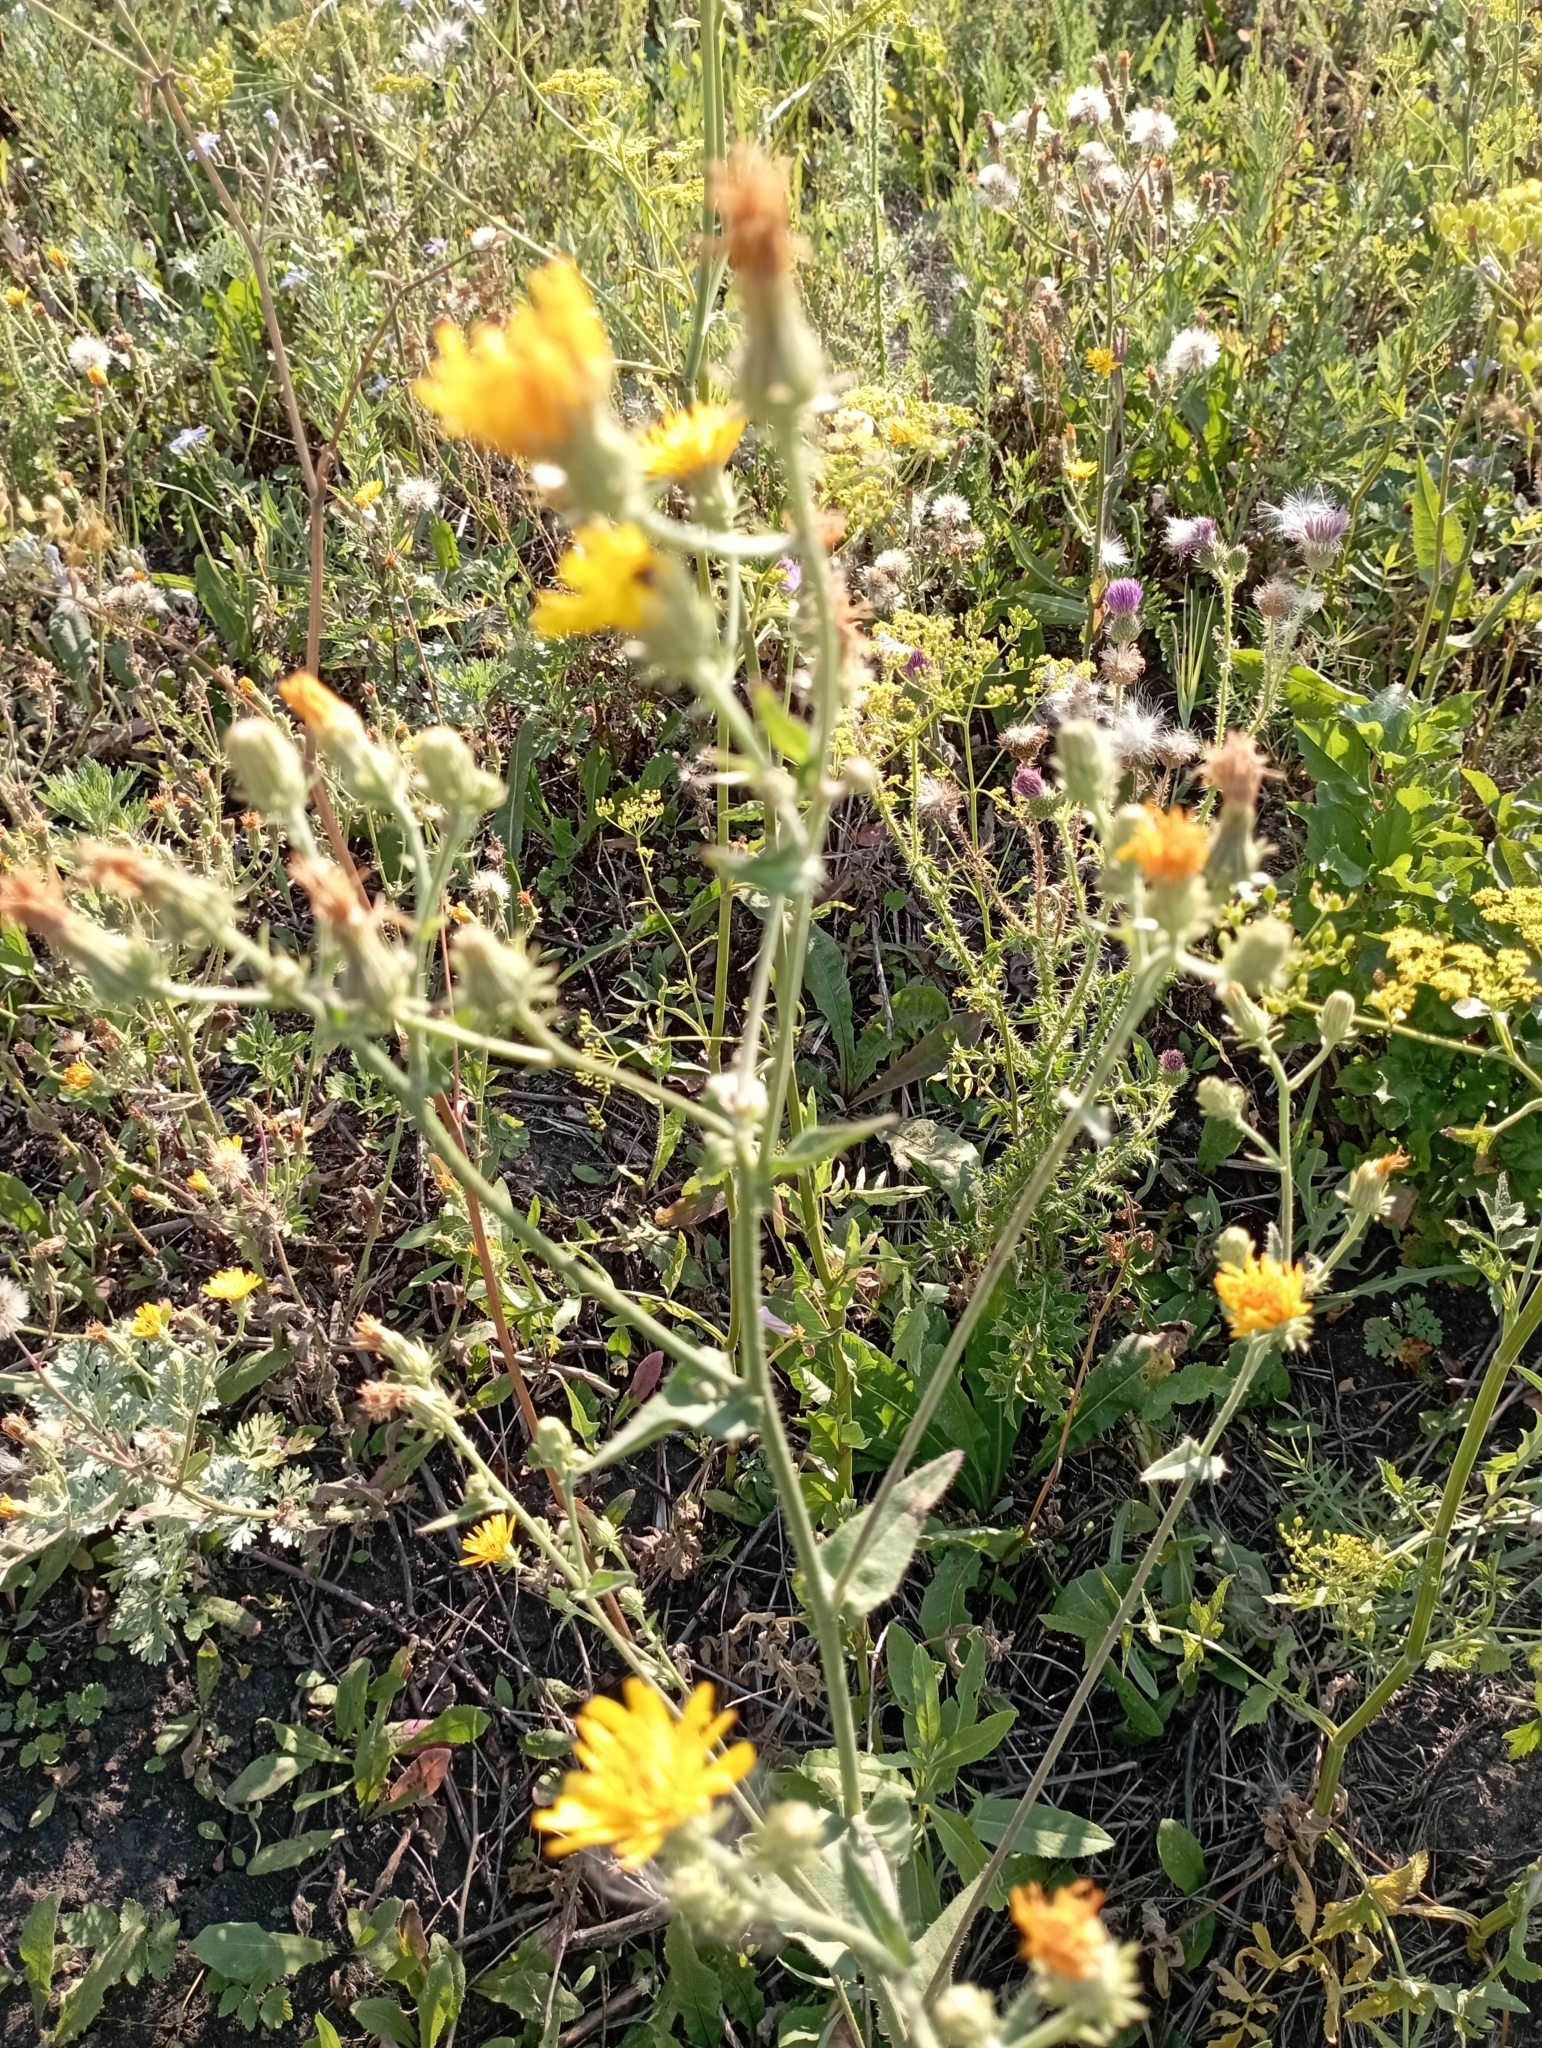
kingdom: Plantae
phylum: Tracheophyta
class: Magnoliopsida
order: Asterales
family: Asteraceae
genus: Picris
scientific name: Picris hieracioides
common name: Hawkweed oxtongue
